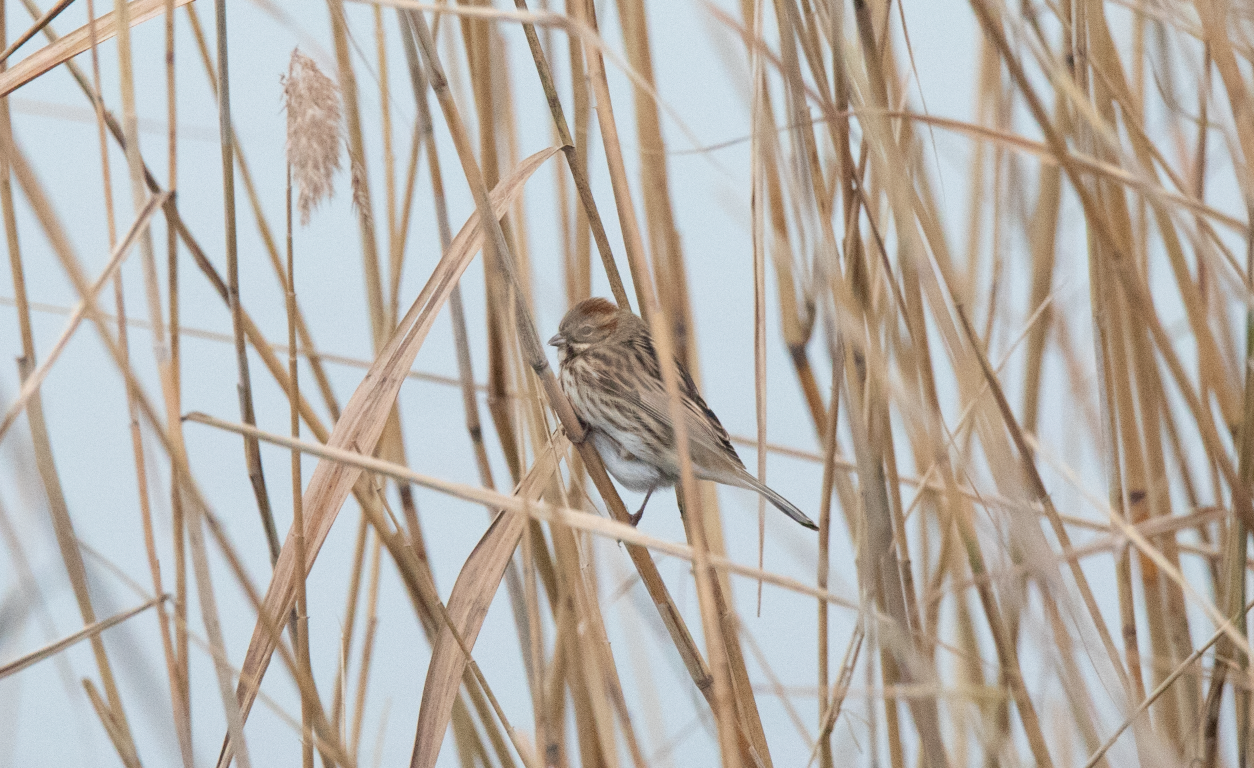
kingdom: Animalia
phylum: Chordata
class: Aves
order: Passeriformes
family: Emberizidae
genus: Emberiza
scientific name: Emberiza schoeniclus
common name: Reed bunting
